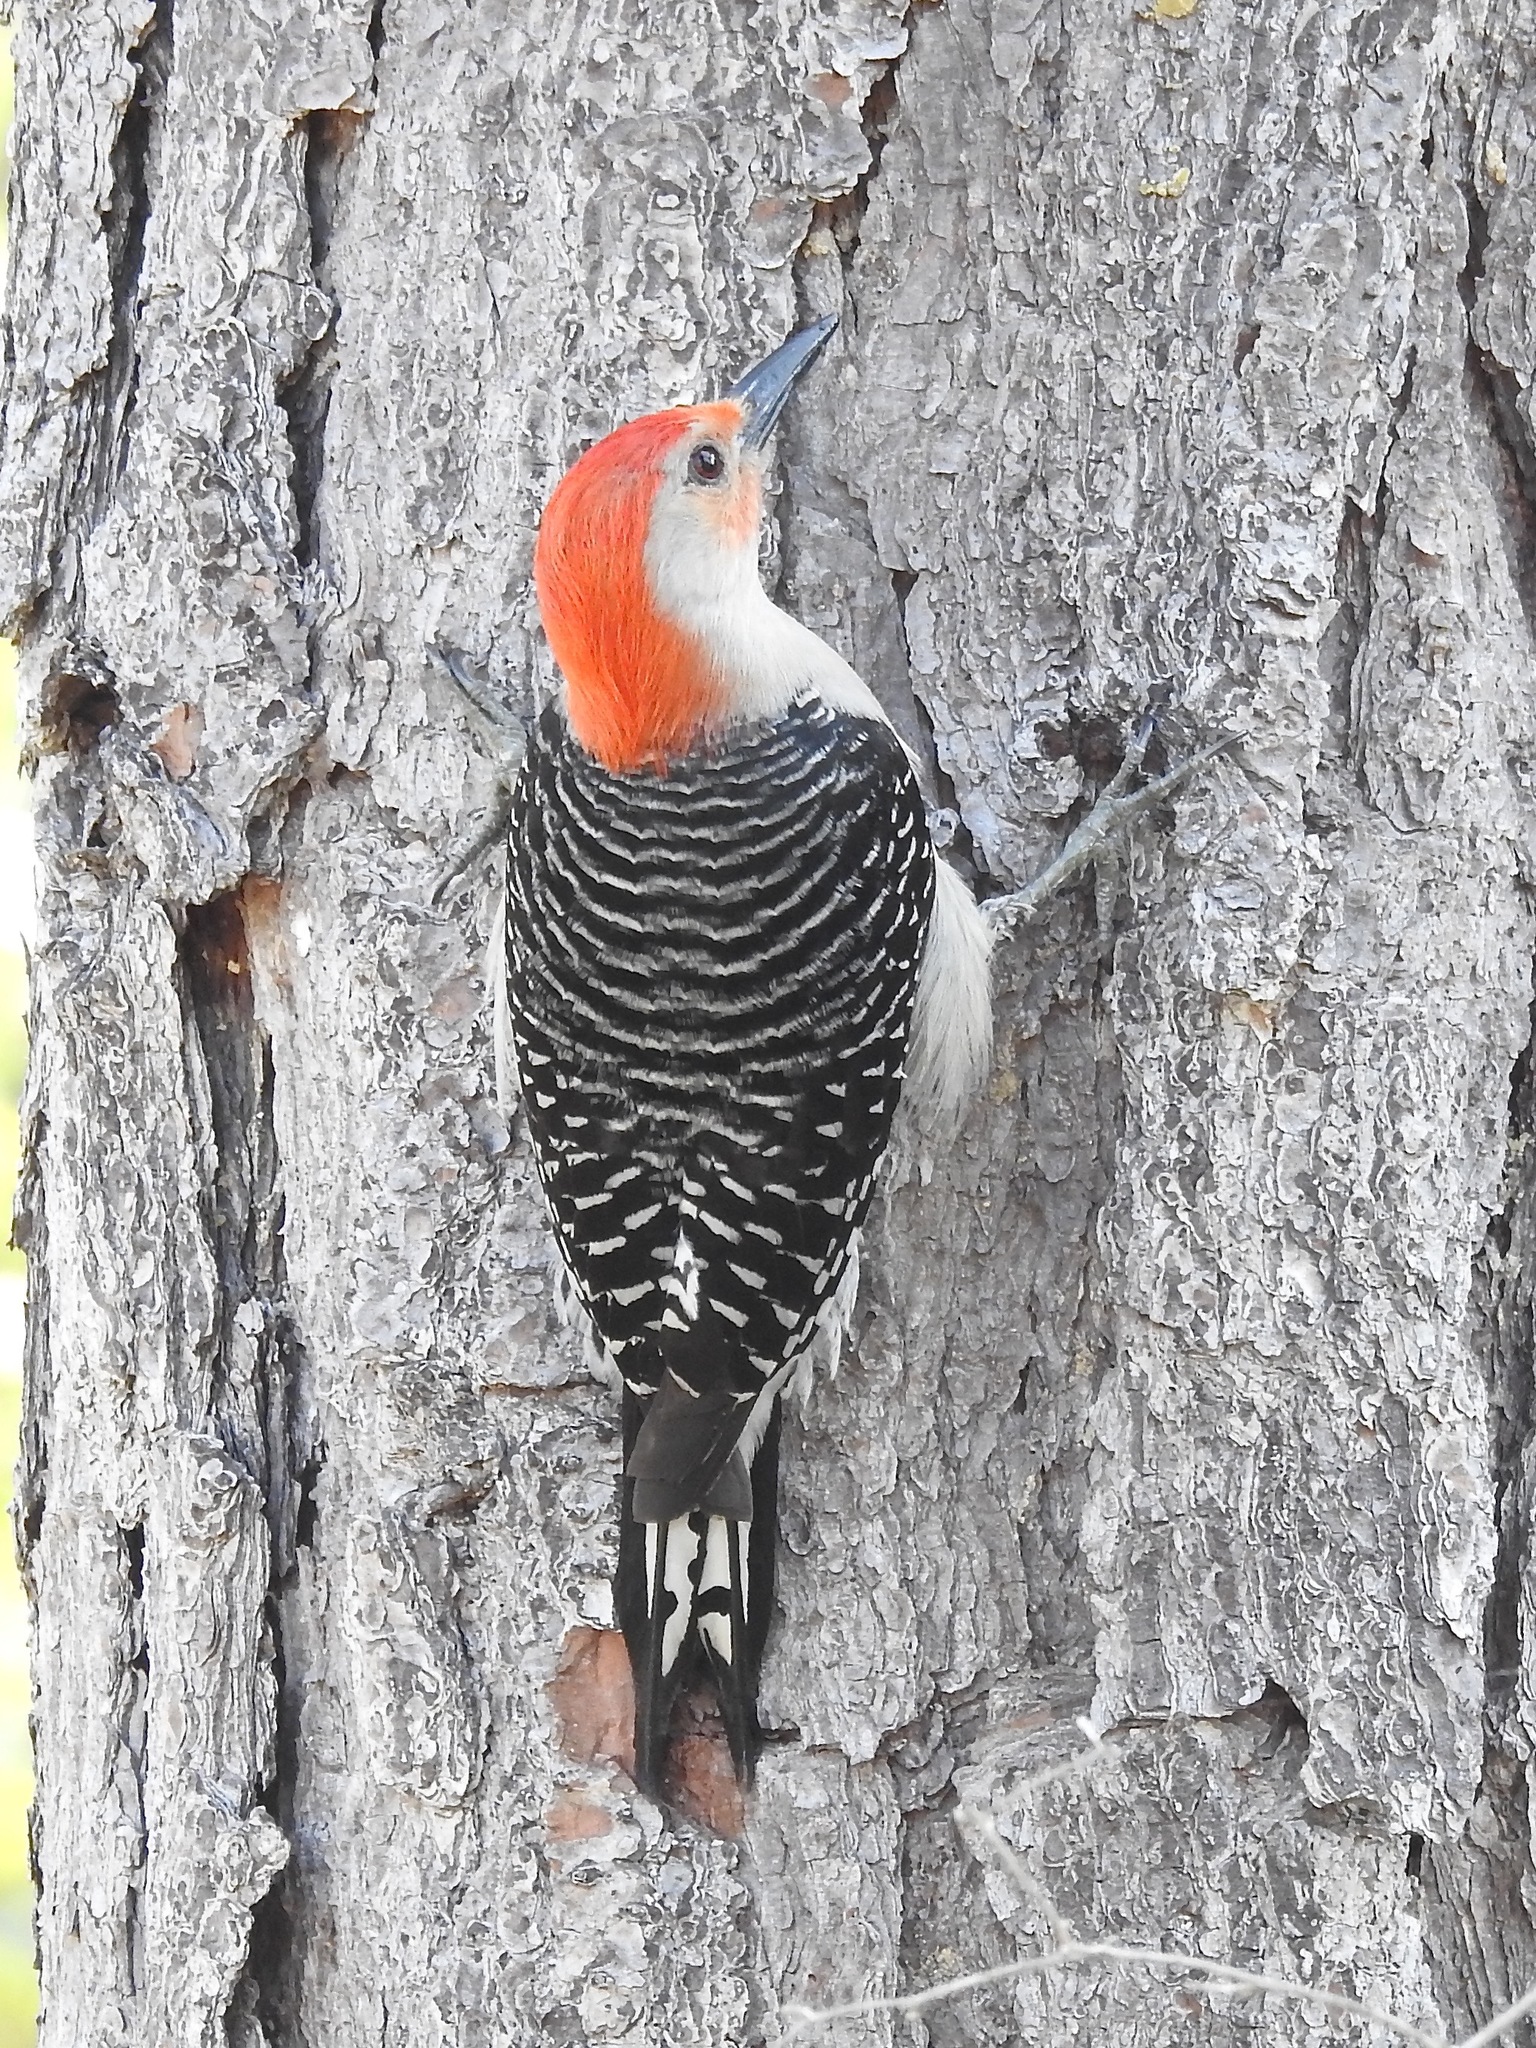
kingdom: Animalia
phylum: Chordata
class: Aves
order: Piciformes
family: Picidae
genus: Melanerpes
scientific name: Melanerpes carolinus
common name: Red-bellied woodpecker
